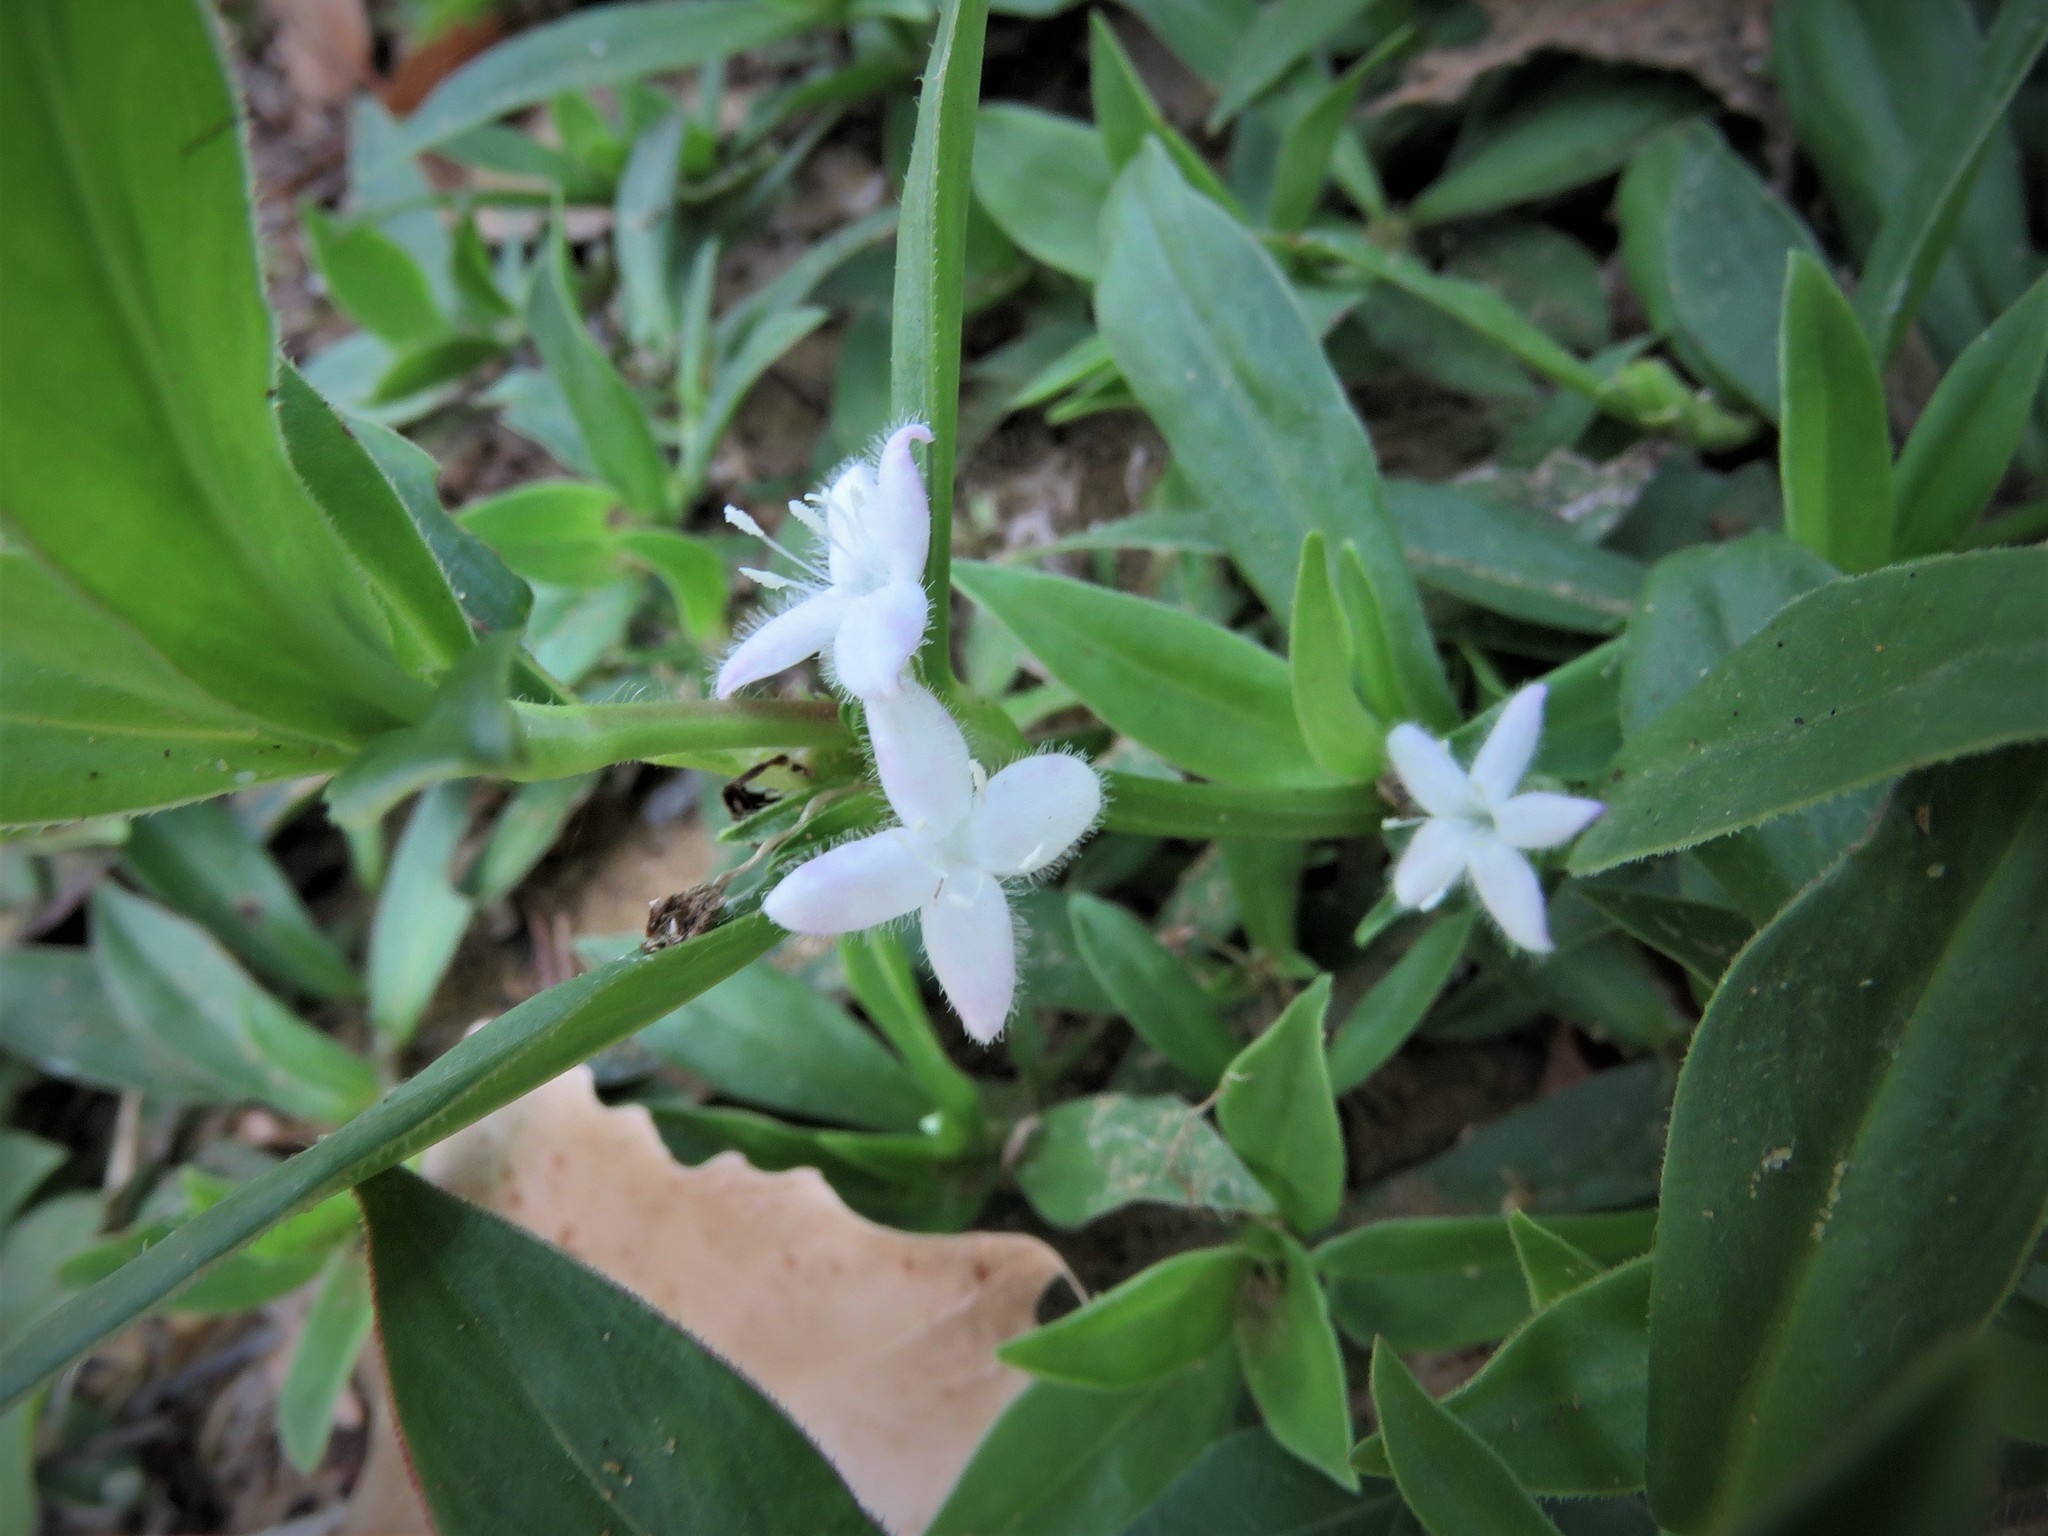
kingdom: Plantae
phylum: Tracheophyta
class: Magnoliopsida
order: Gentianales
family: Rubiaceae
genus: Diodia
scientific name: Diodia virginiana
